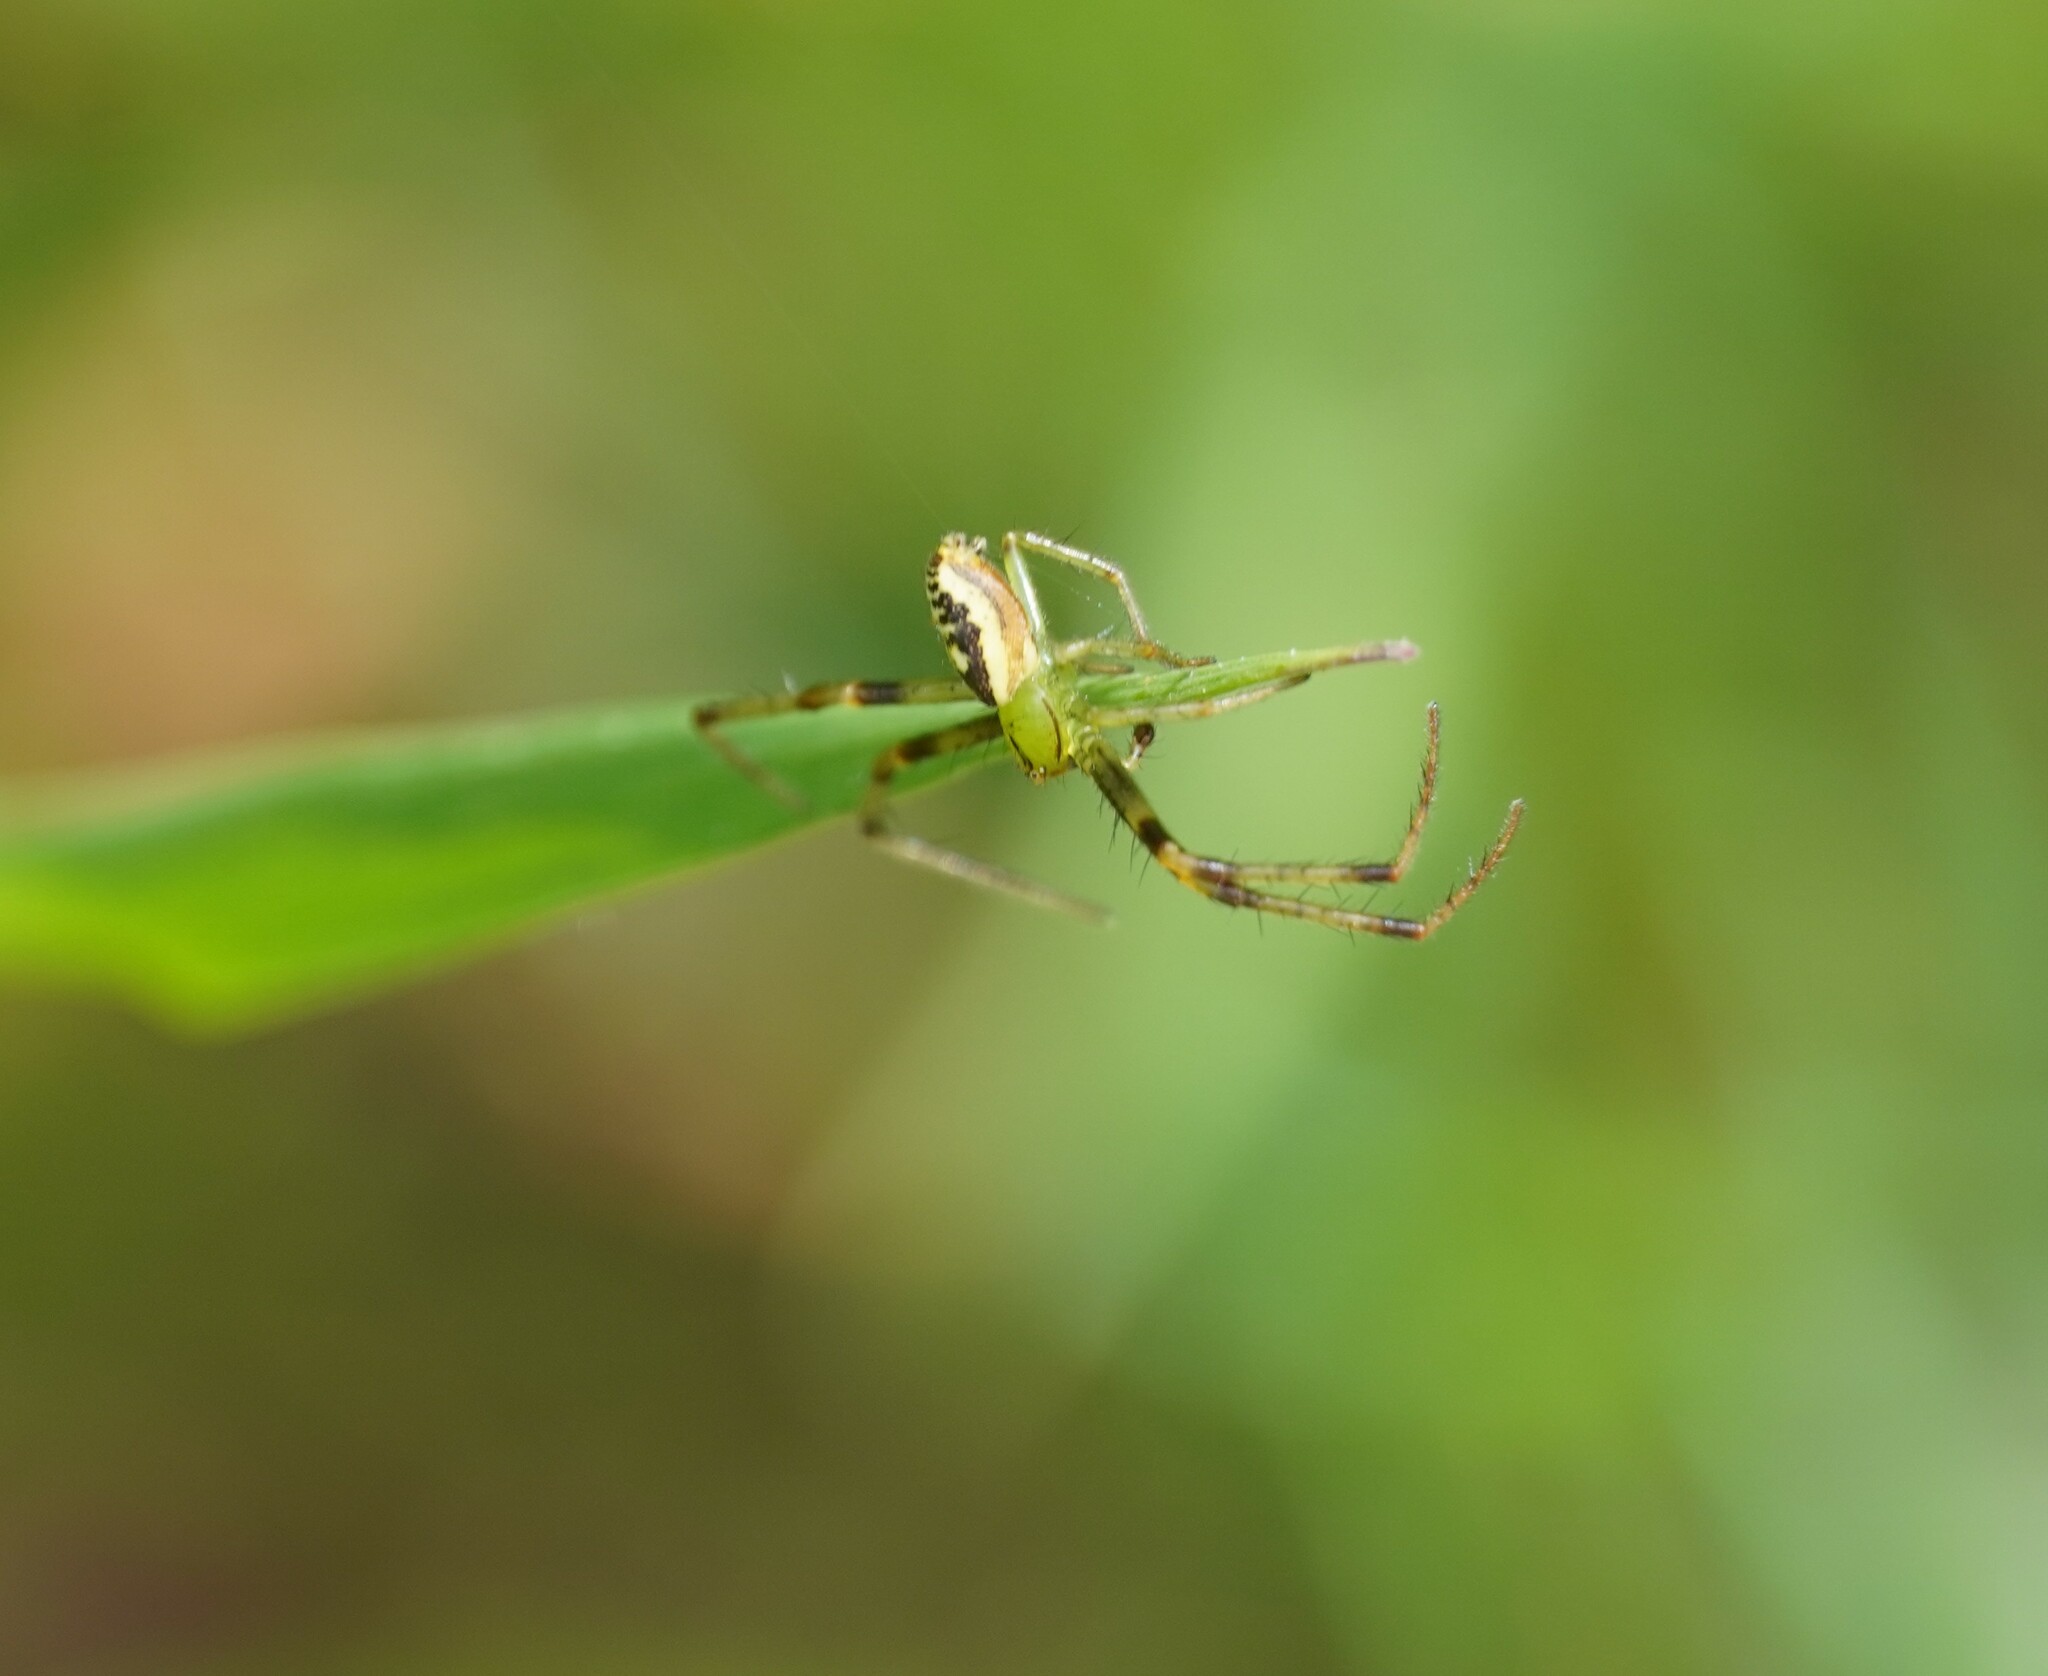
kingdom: Animalia
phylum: Arthropoda
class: Arachnida
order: Araneae
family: Thomisidae
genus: Diaea
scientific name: Diaea livens
